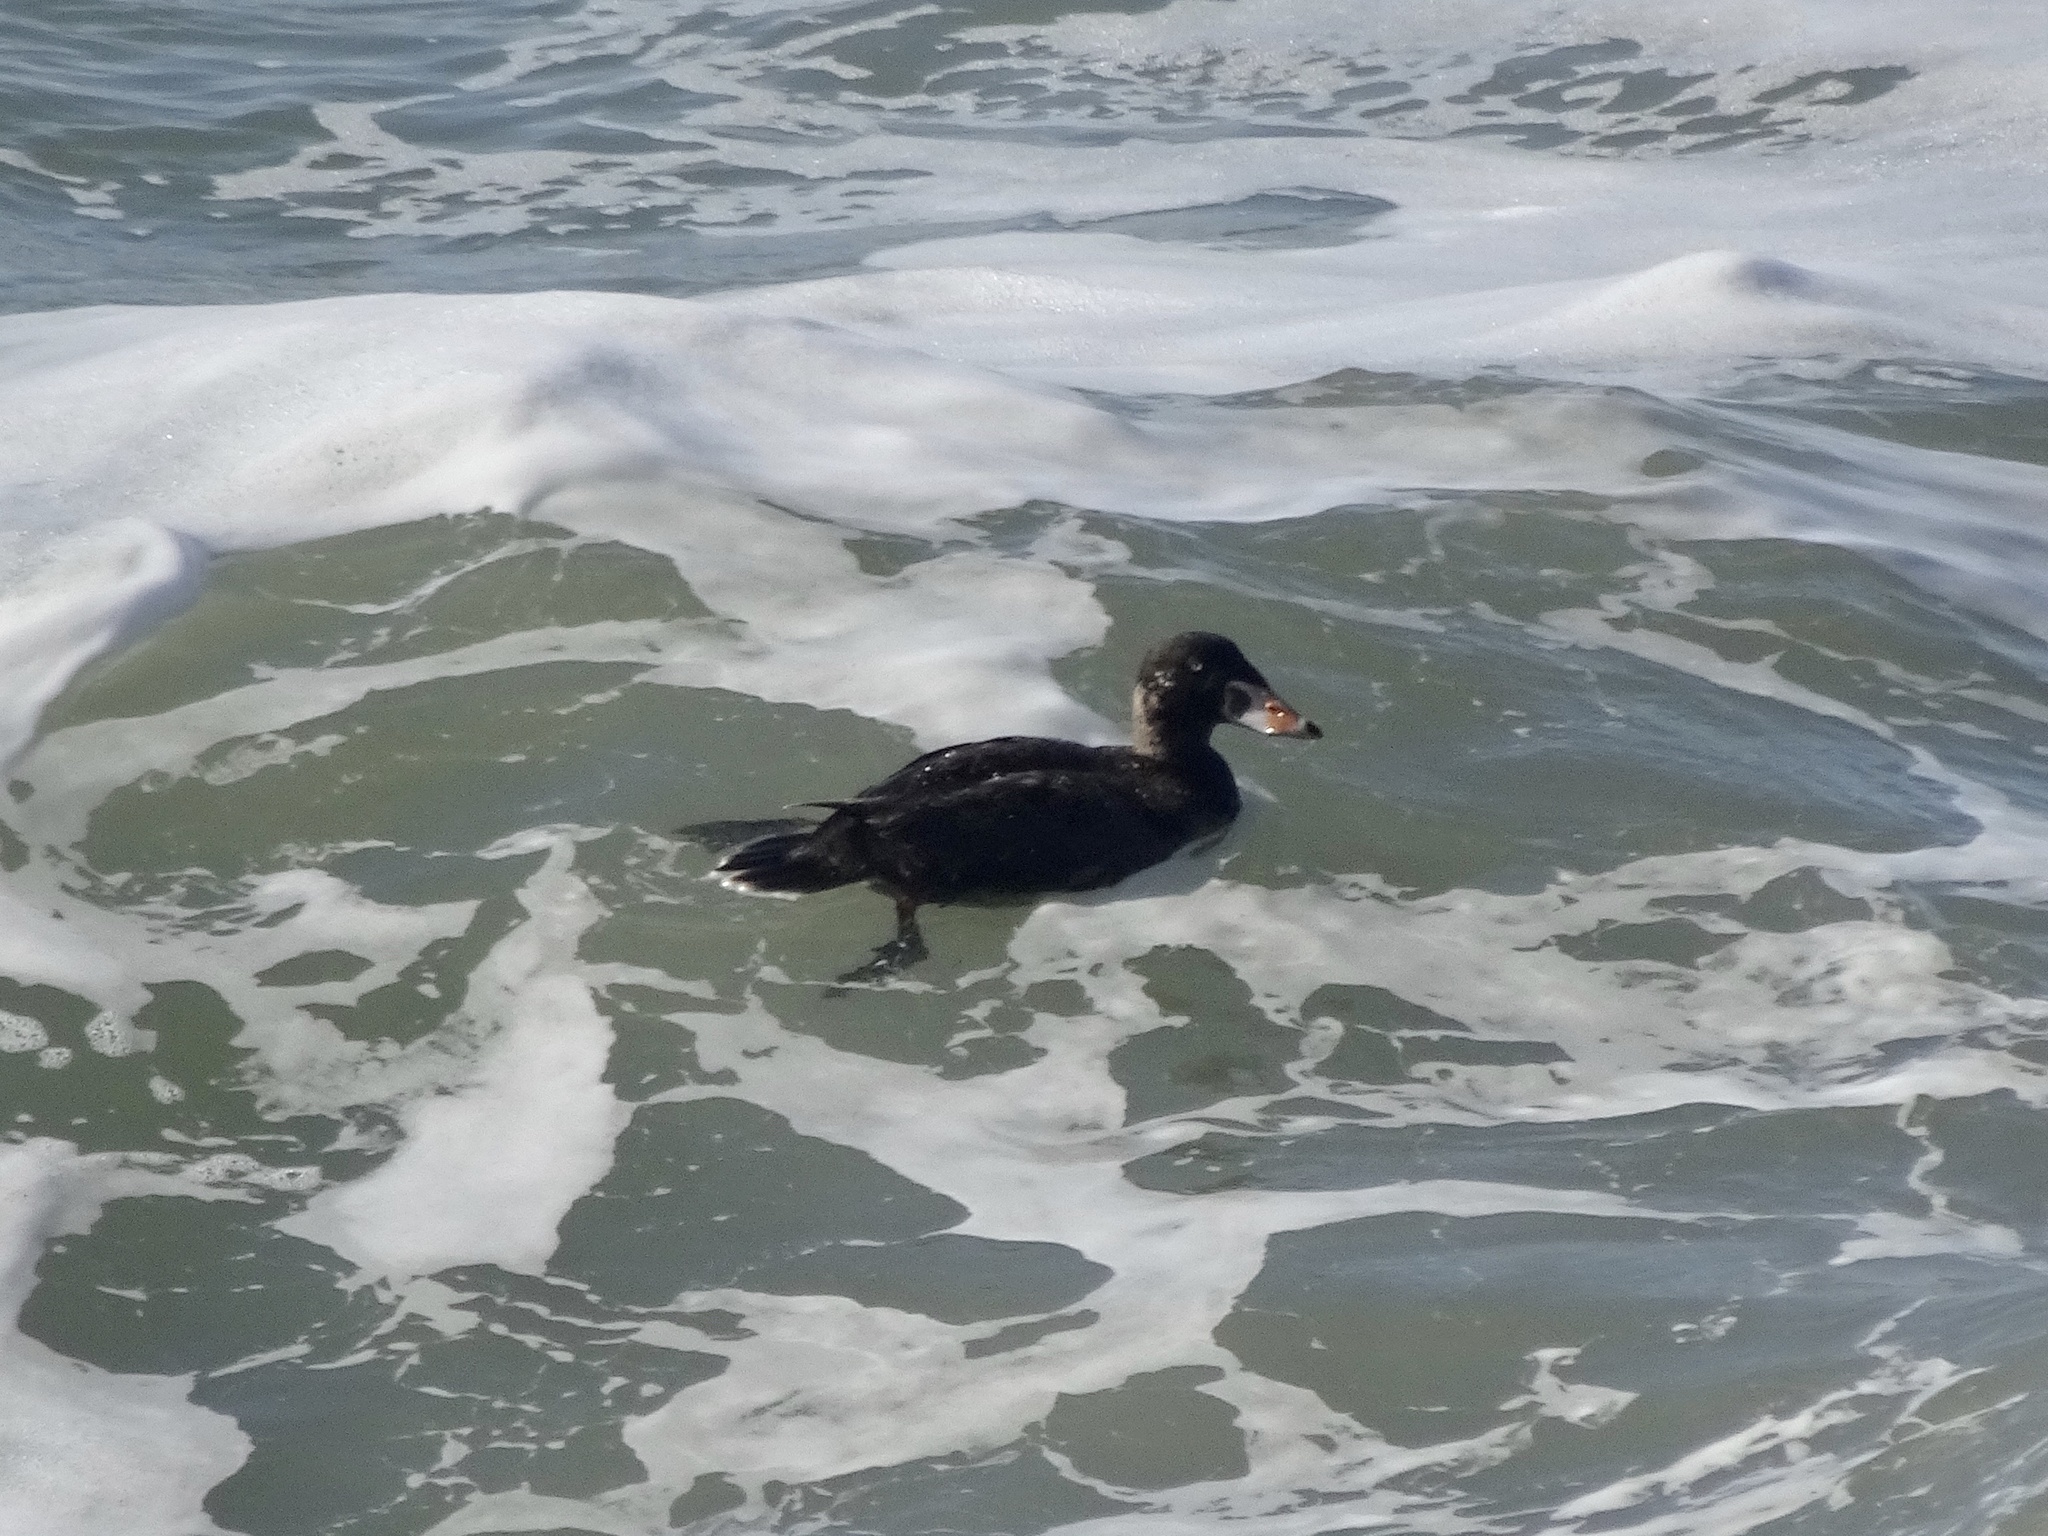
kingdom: Animalia
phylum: Chordata
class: Aves
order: Anseriformes
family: Anatidae
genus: Melanitta
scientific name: Melanitta perspicillata
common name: Surf scoter
